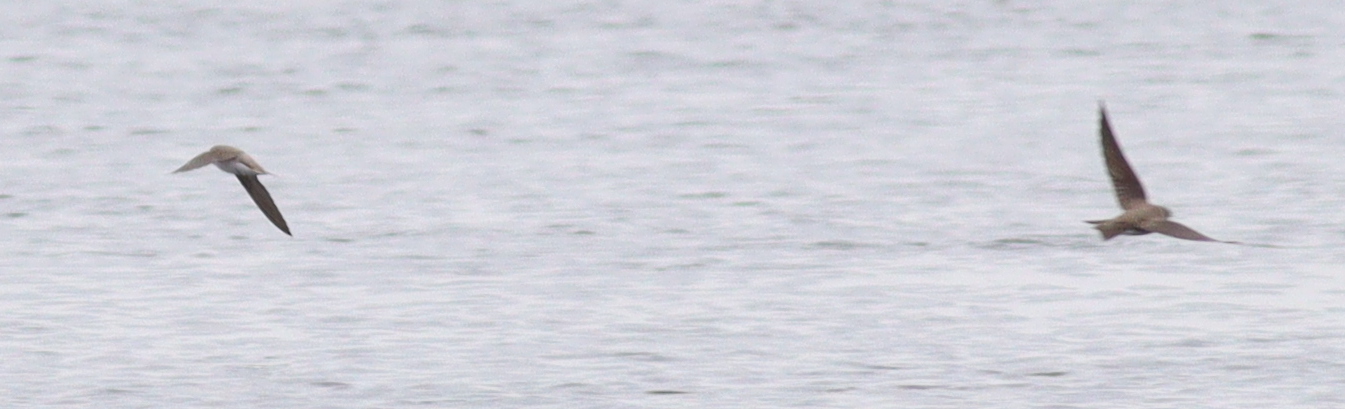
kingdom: Animalia
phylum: Chordata
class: Aves
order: Passeriformes
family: Hirundinidae
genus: Riparia
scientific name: Riparia riparia
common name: Sand martin
